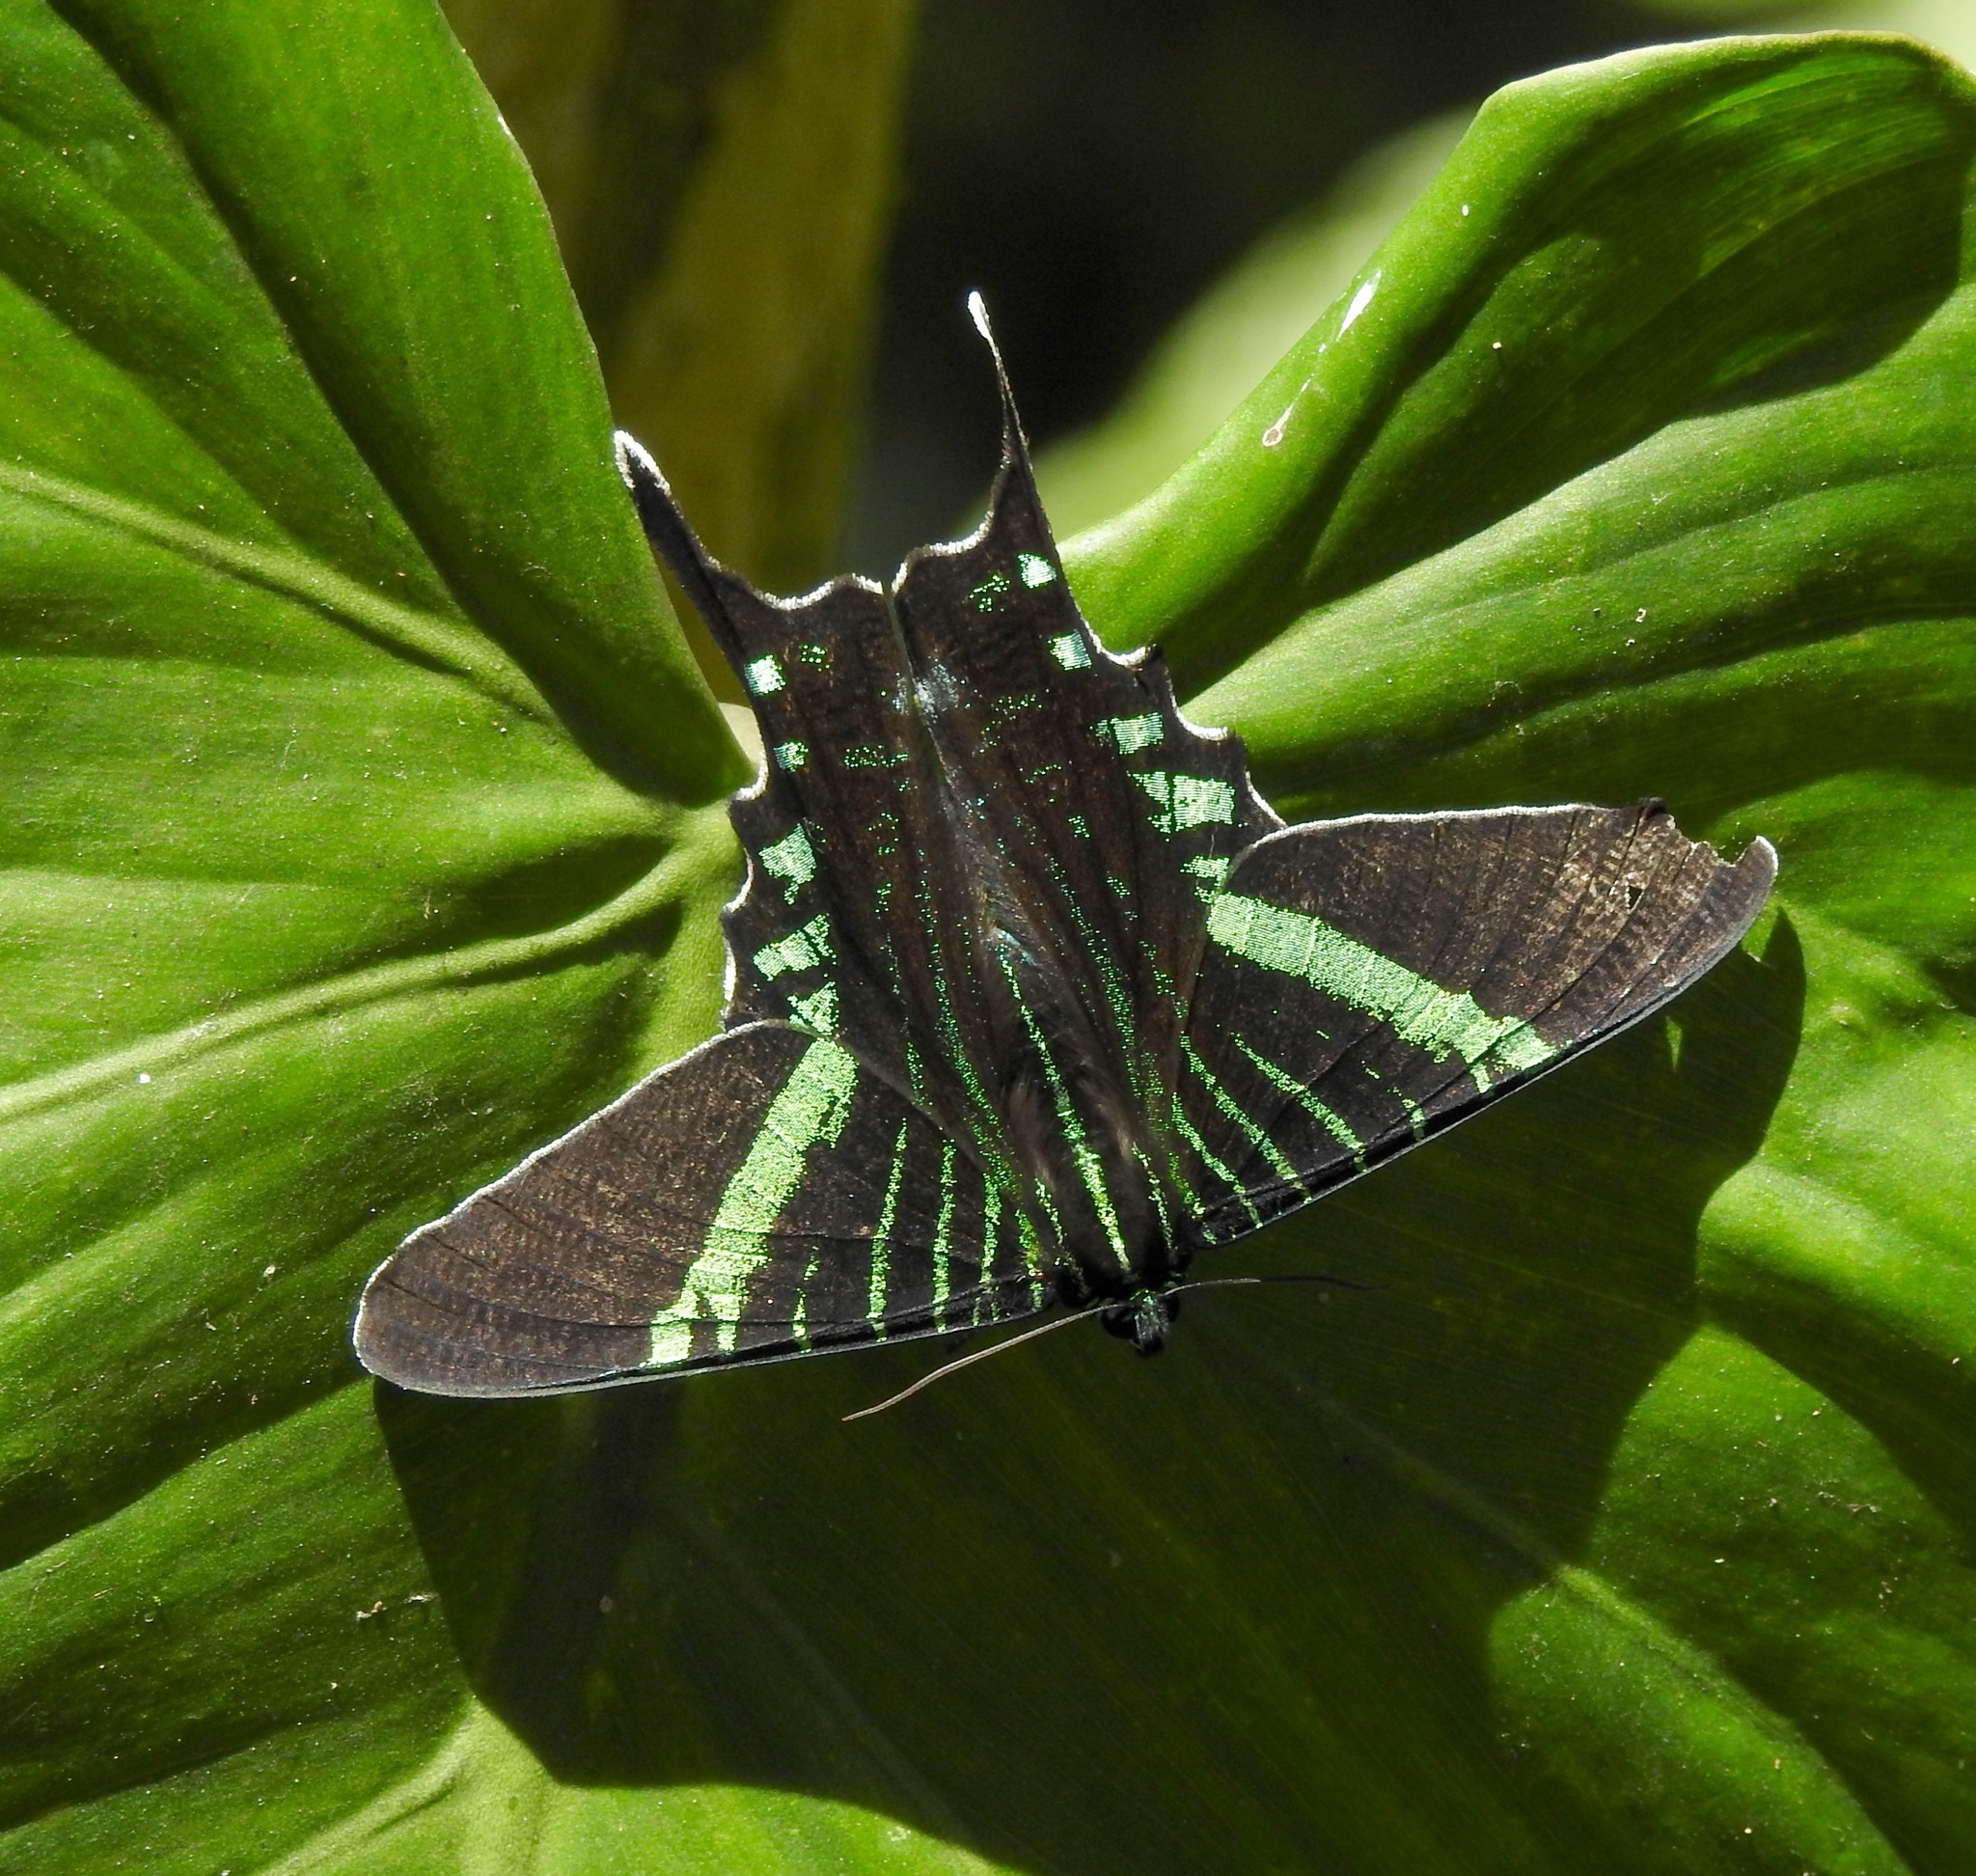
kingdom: Animalia
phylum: Arthropoda
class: Insecta
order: Lepidoptera
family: Uraniidae
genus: Urania
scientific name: Urania fulgens
